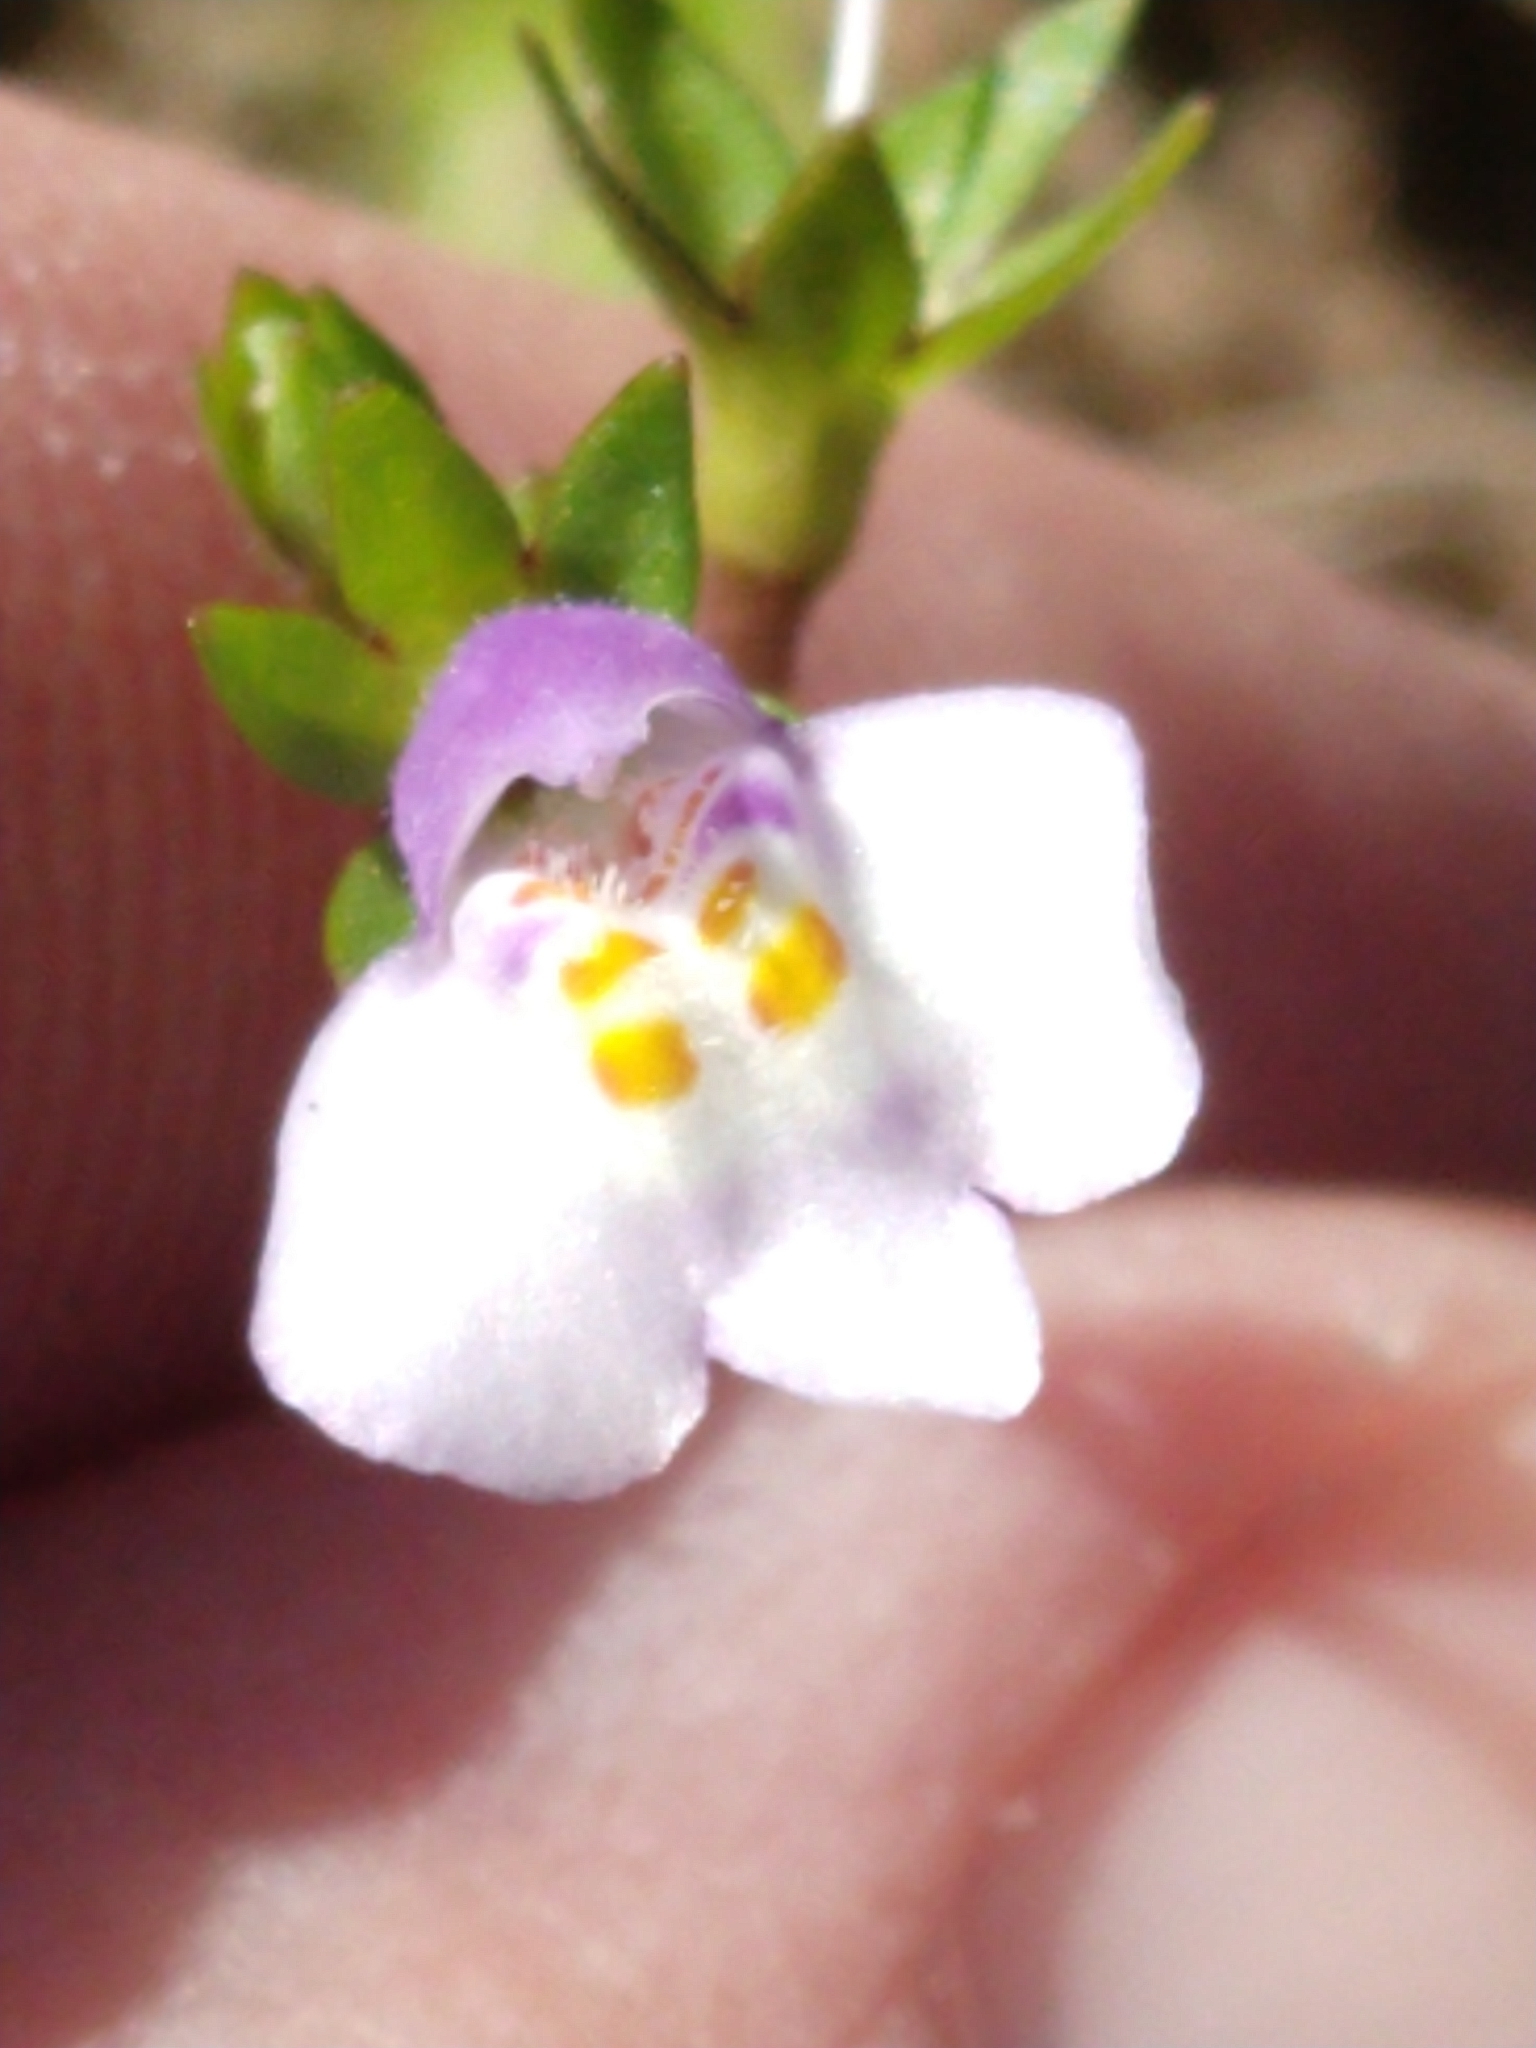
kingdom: Plantae
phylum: Tracheophyta
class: Magnoliopsida
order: Lamiales
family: Mazaceae
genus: Mazus
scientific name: Mazus pumilus
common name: Japanese mazus
